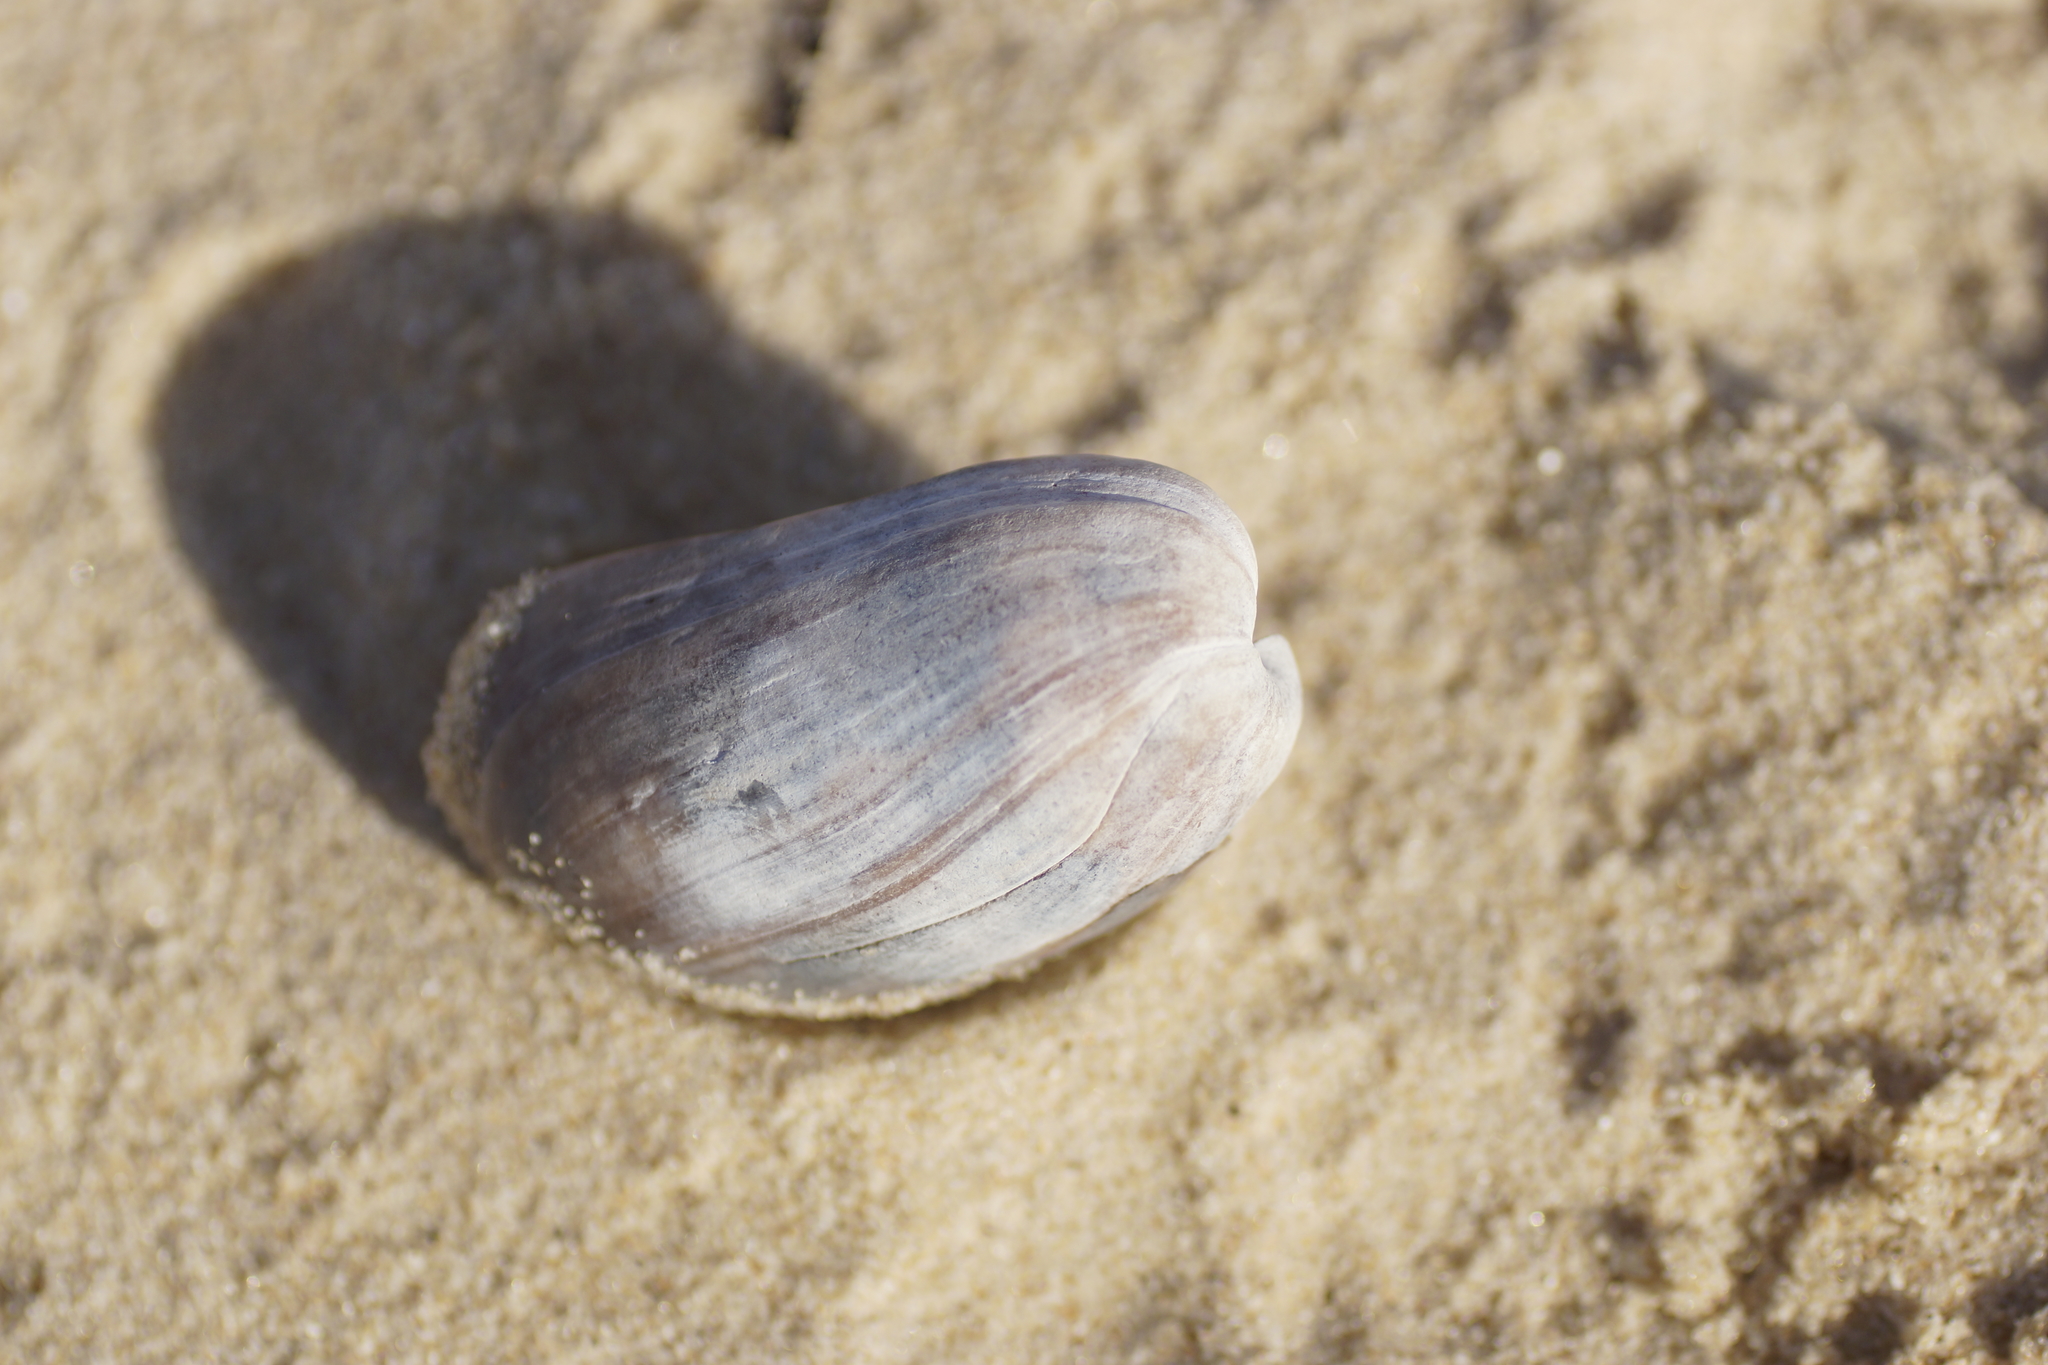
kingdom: Animalia
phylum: Mollusca
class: Gastropoda
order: Cephalaspidea
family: Bullidae
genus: Bulla
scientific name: Bulla quoyii
